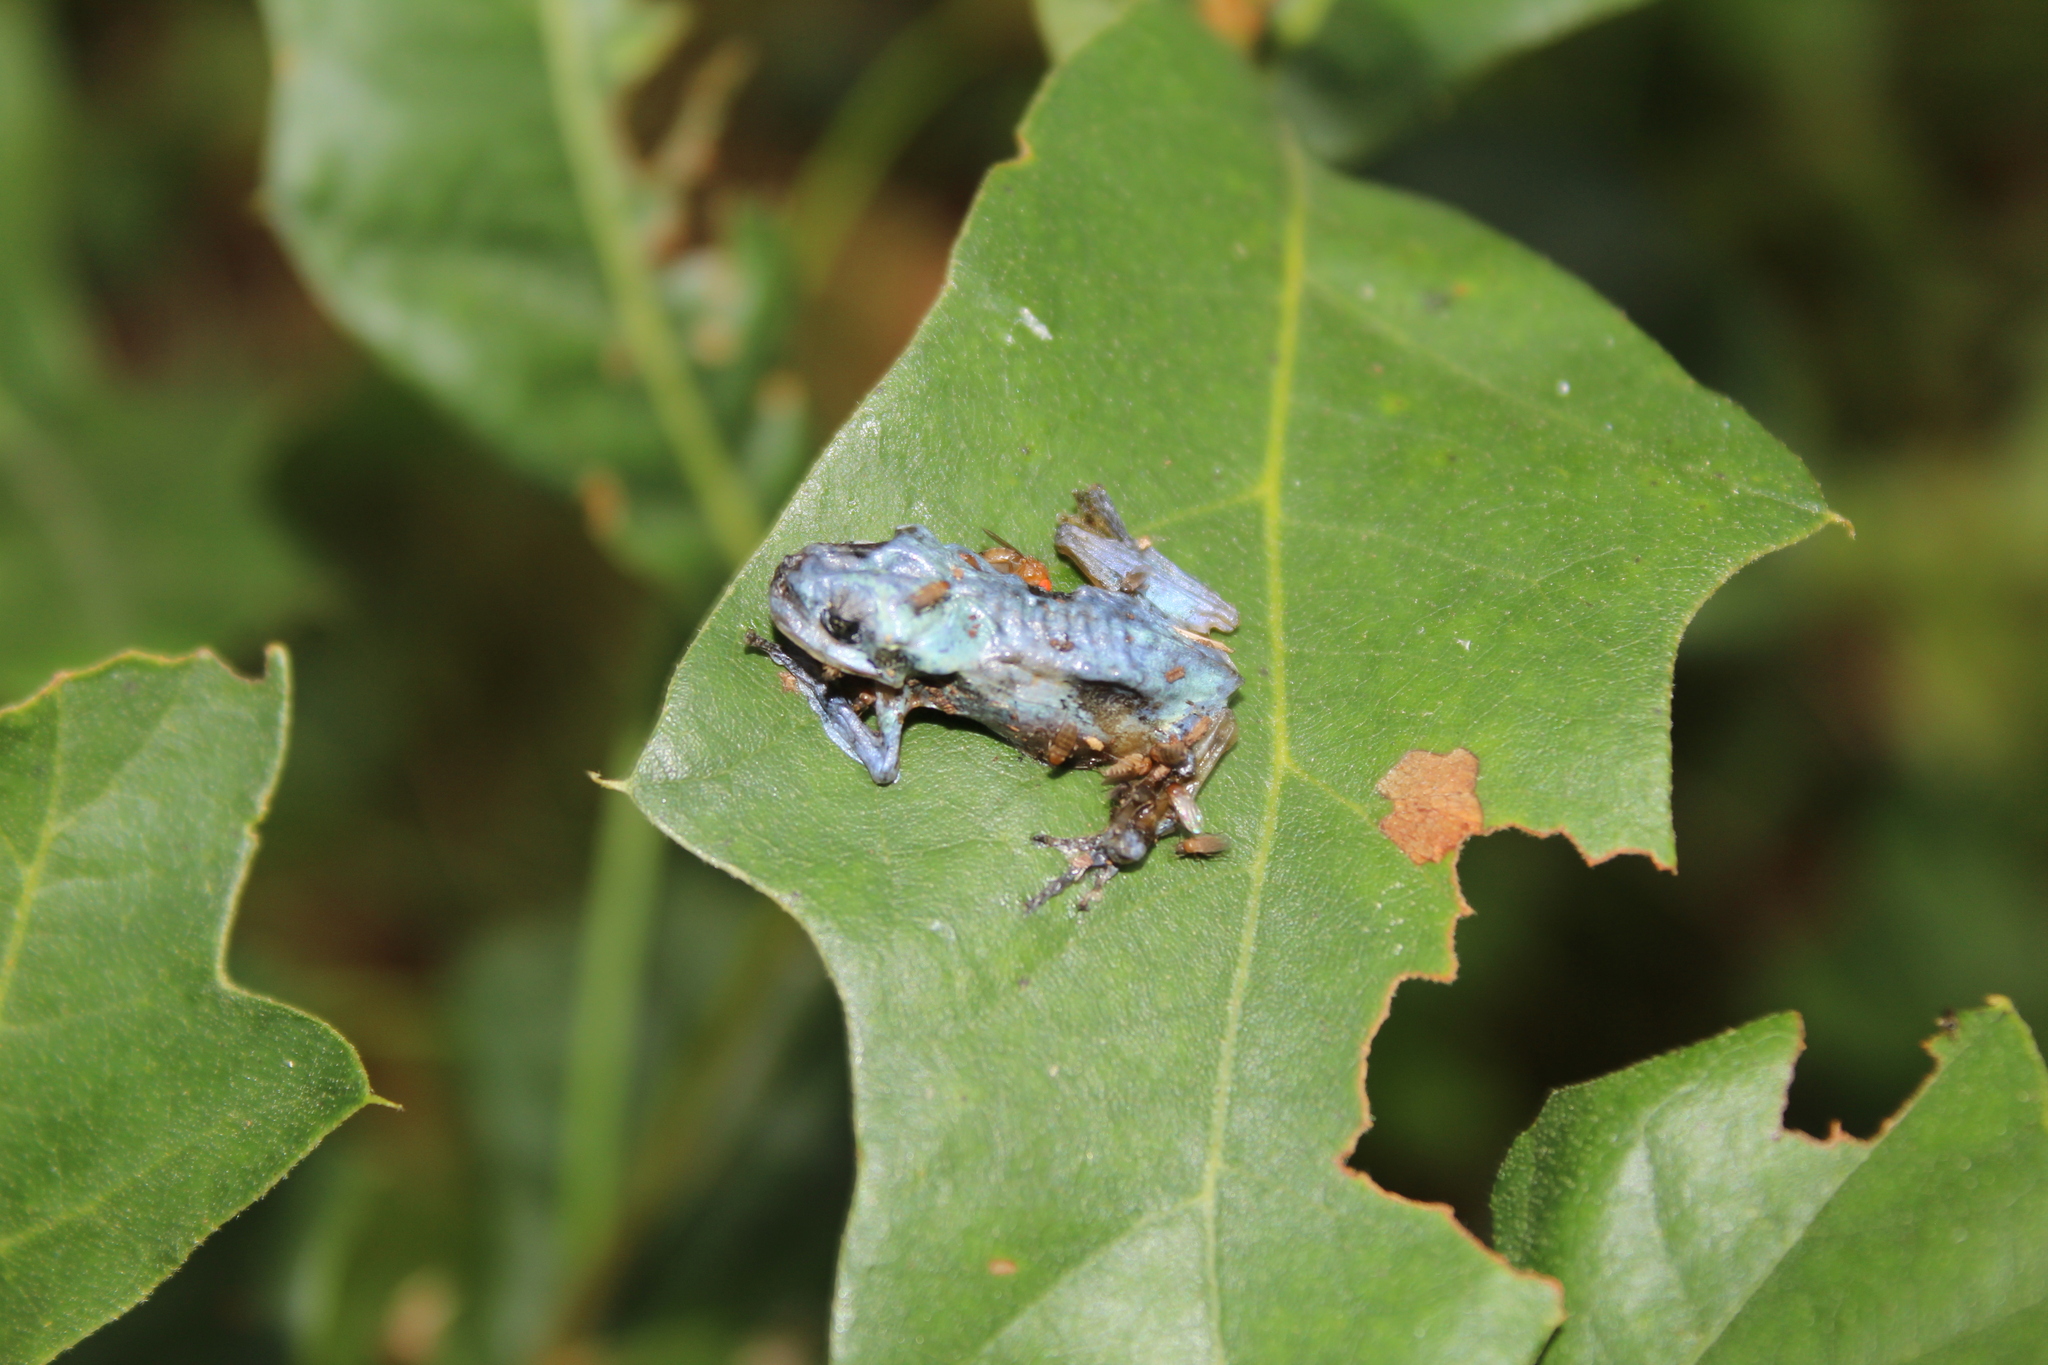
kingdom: Animalia
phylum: Chordata
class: Amphibia
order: Anura
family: Hylidae
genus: Dryophytes
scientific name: Dryophytes versicolor
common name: Gray treefrog
